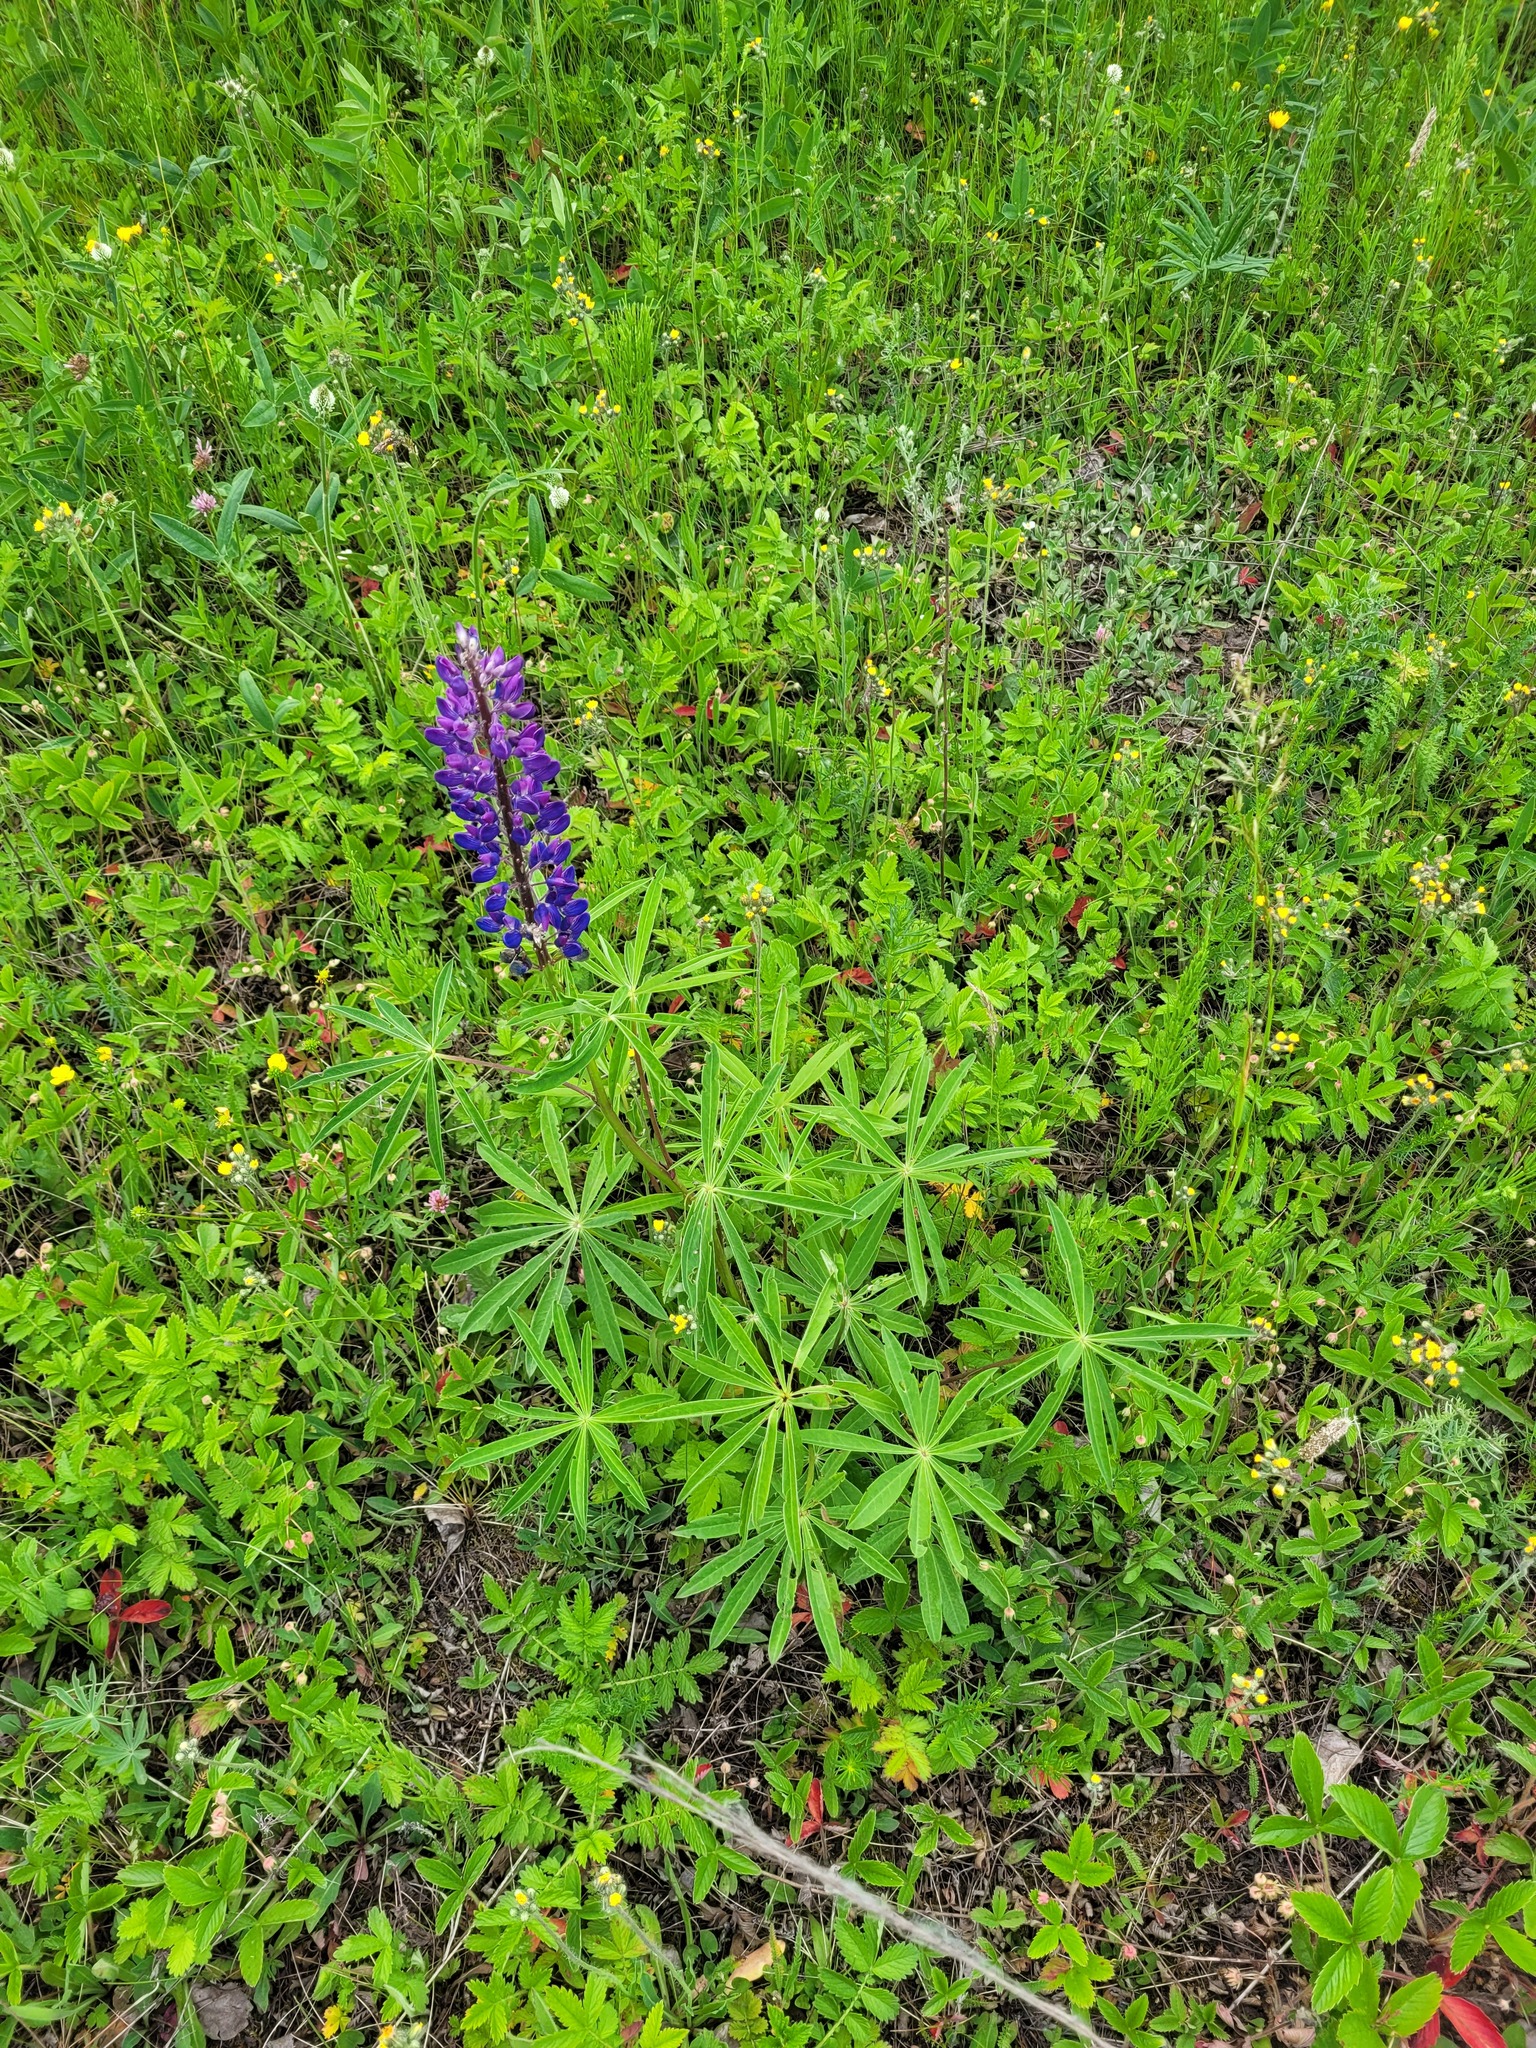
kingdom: Plantae
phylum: Tracheophyta
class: Magnoliopsida
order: Fabales
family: Fabaceae
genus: Lupinus
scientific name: Lupinus polyphyllus
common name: Garden lupin
